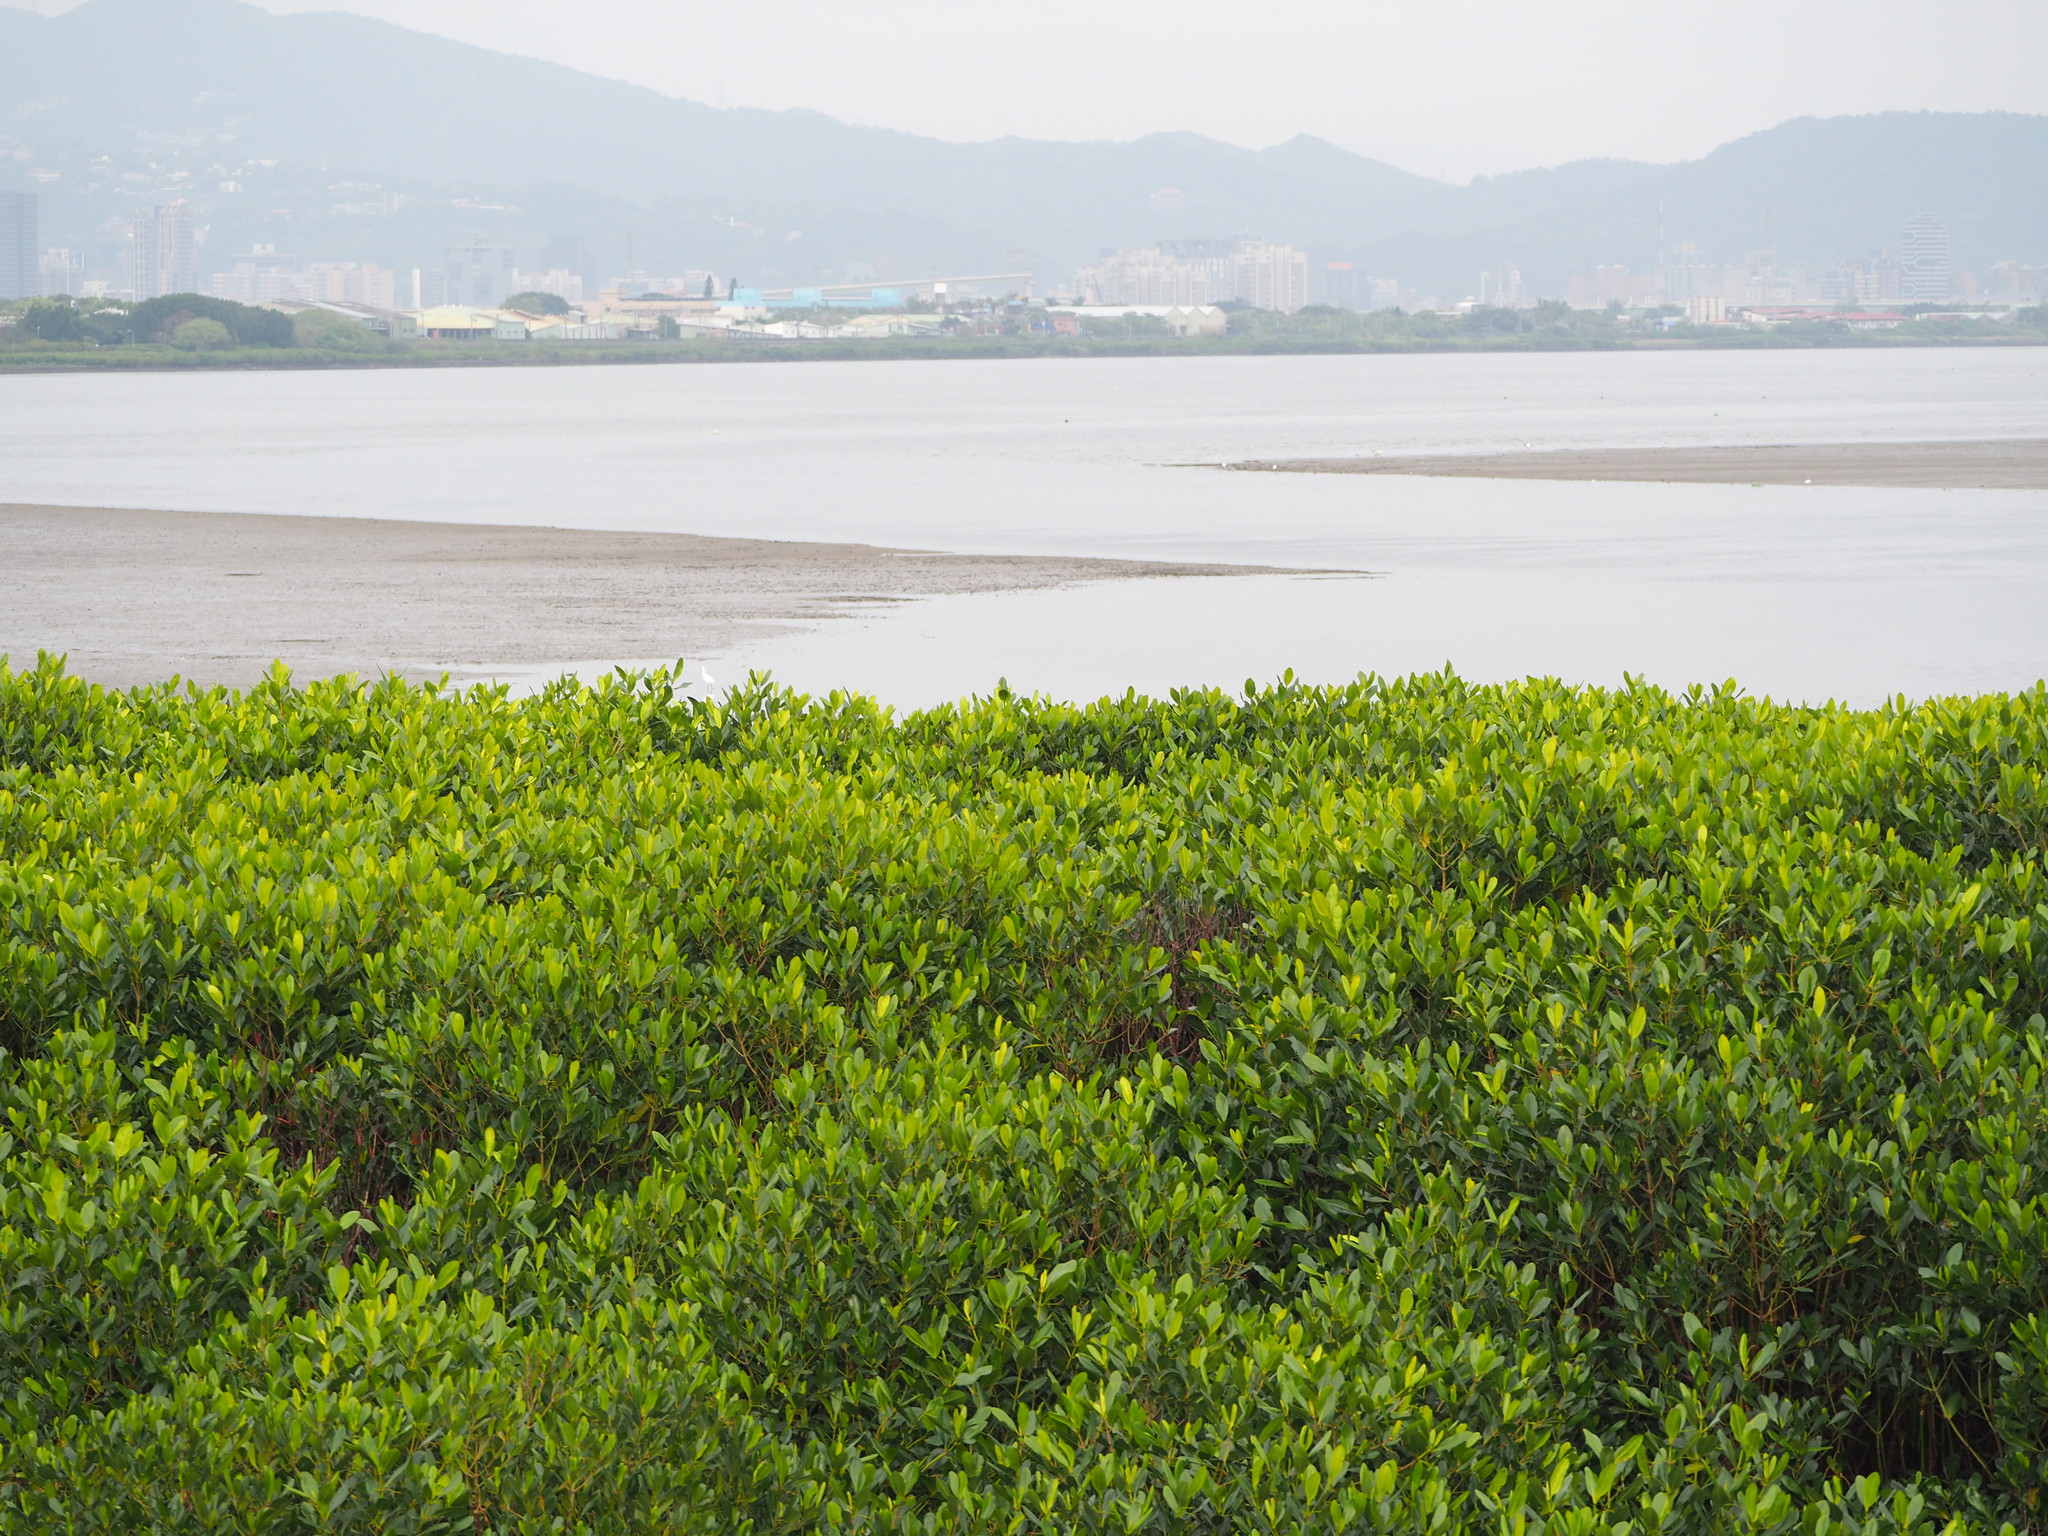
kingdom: Plantae
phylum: Tracheophyta
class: Magnoliopsida
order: Malpighiales
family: Rhizophoraceae
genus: Kandelia
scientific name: Kandelia obovata
